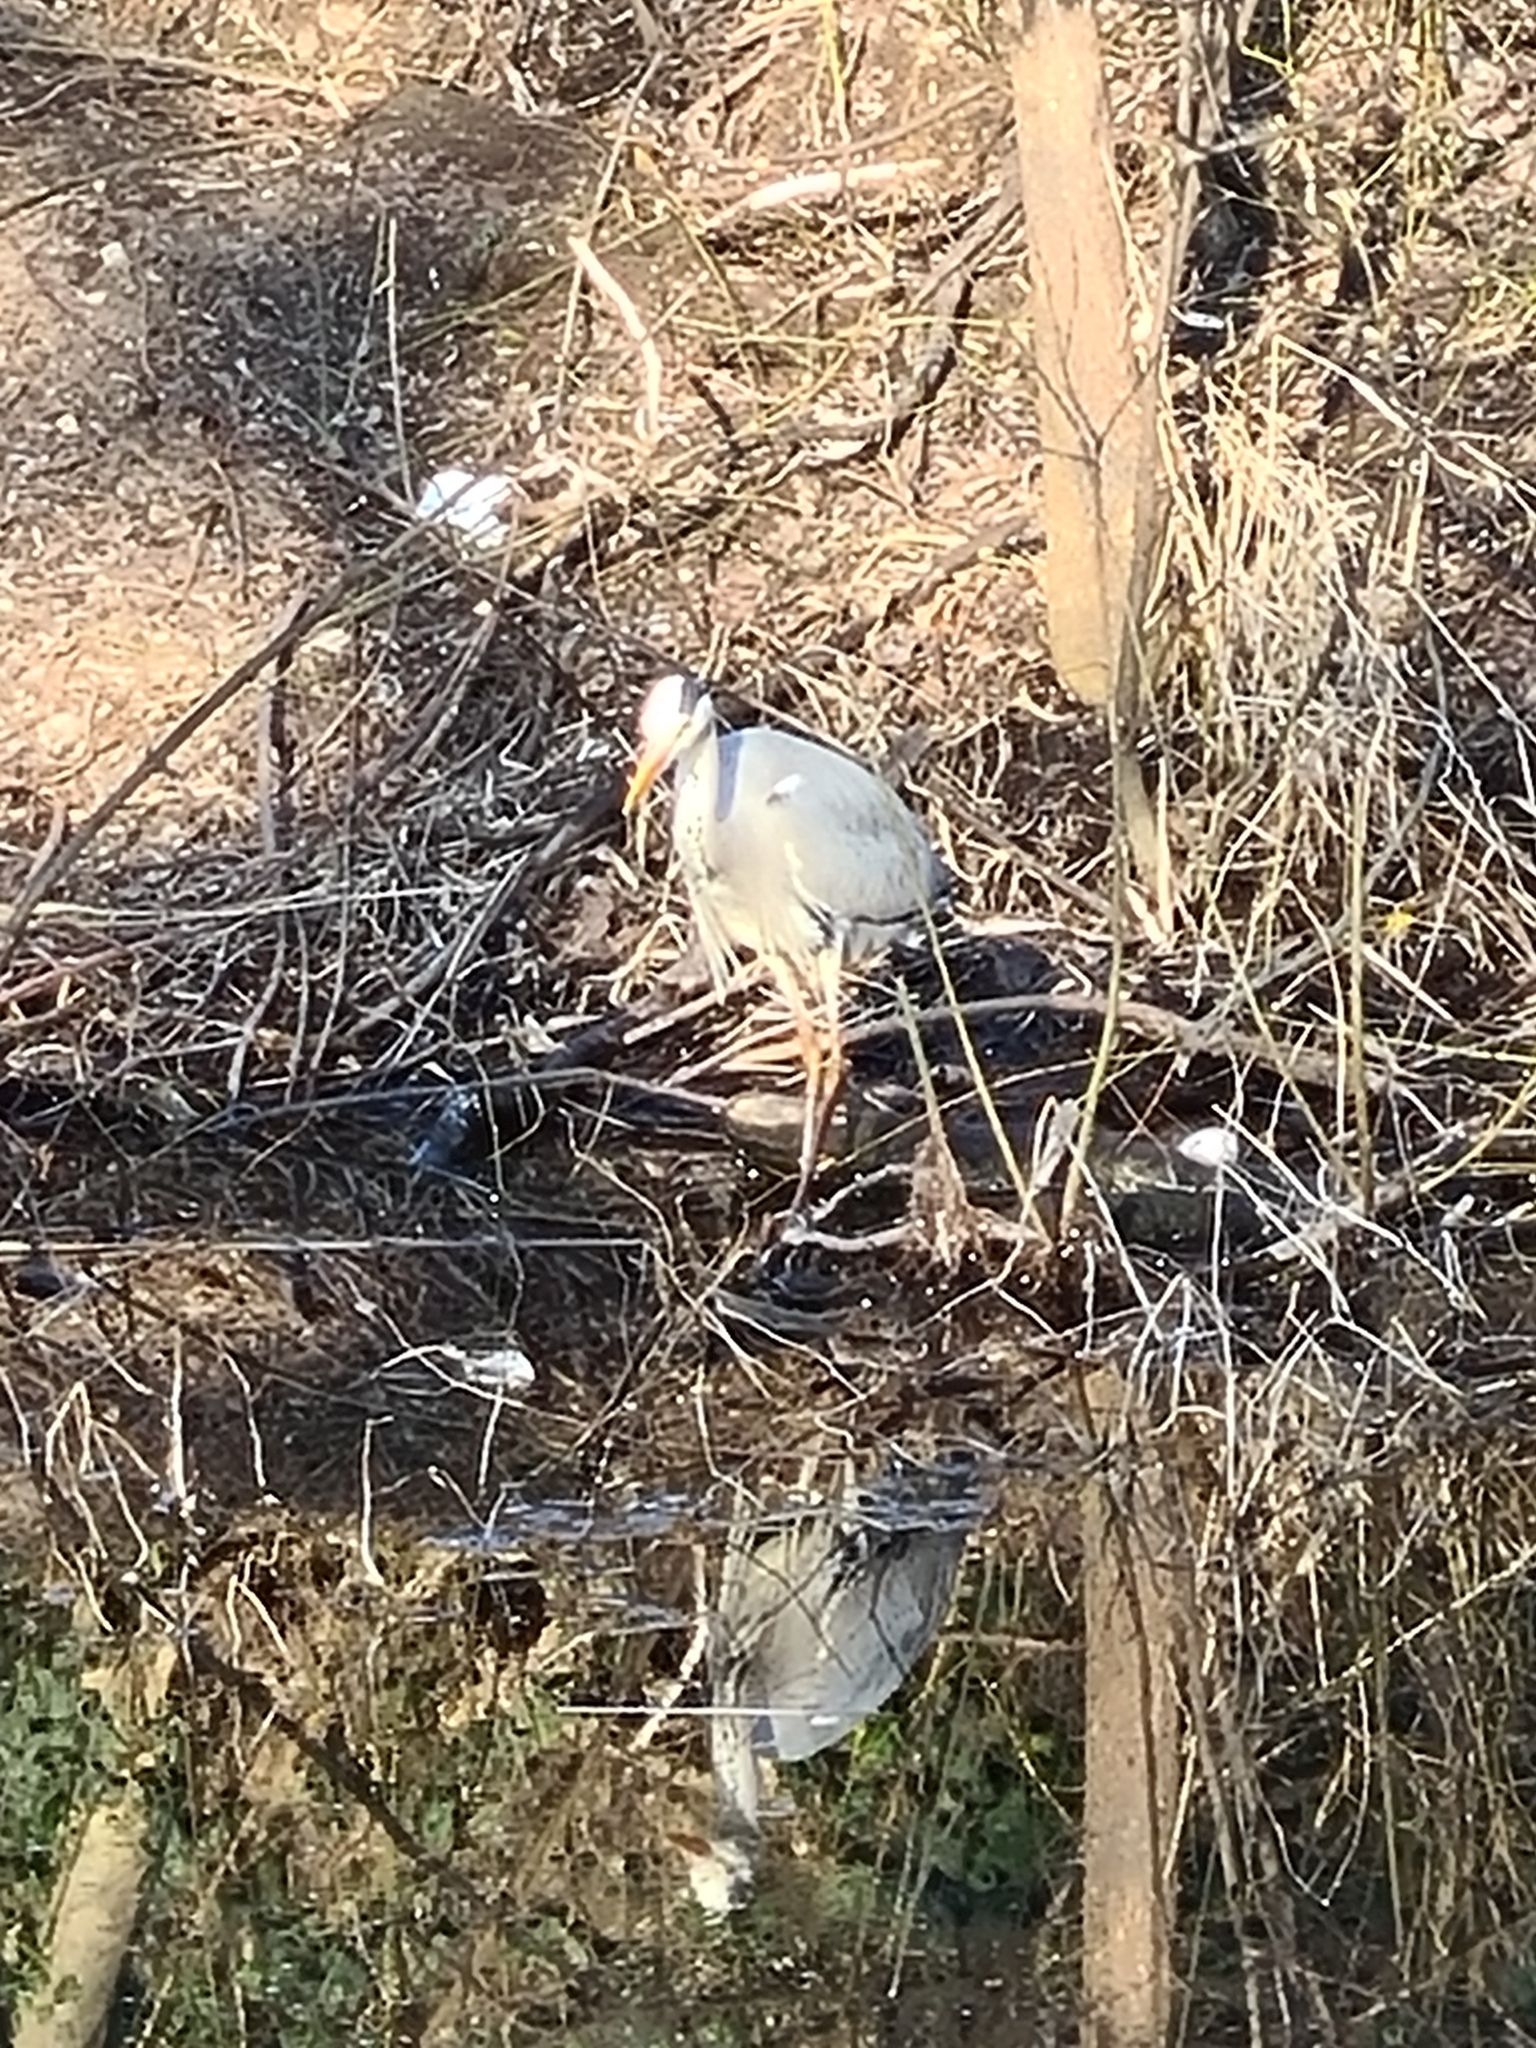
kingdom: Animalia
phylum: Chordata
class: Aves
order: Pelecaniformes
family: Ardeidae
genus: Ardea
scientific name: Ardea cinerea
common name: Grey heron
